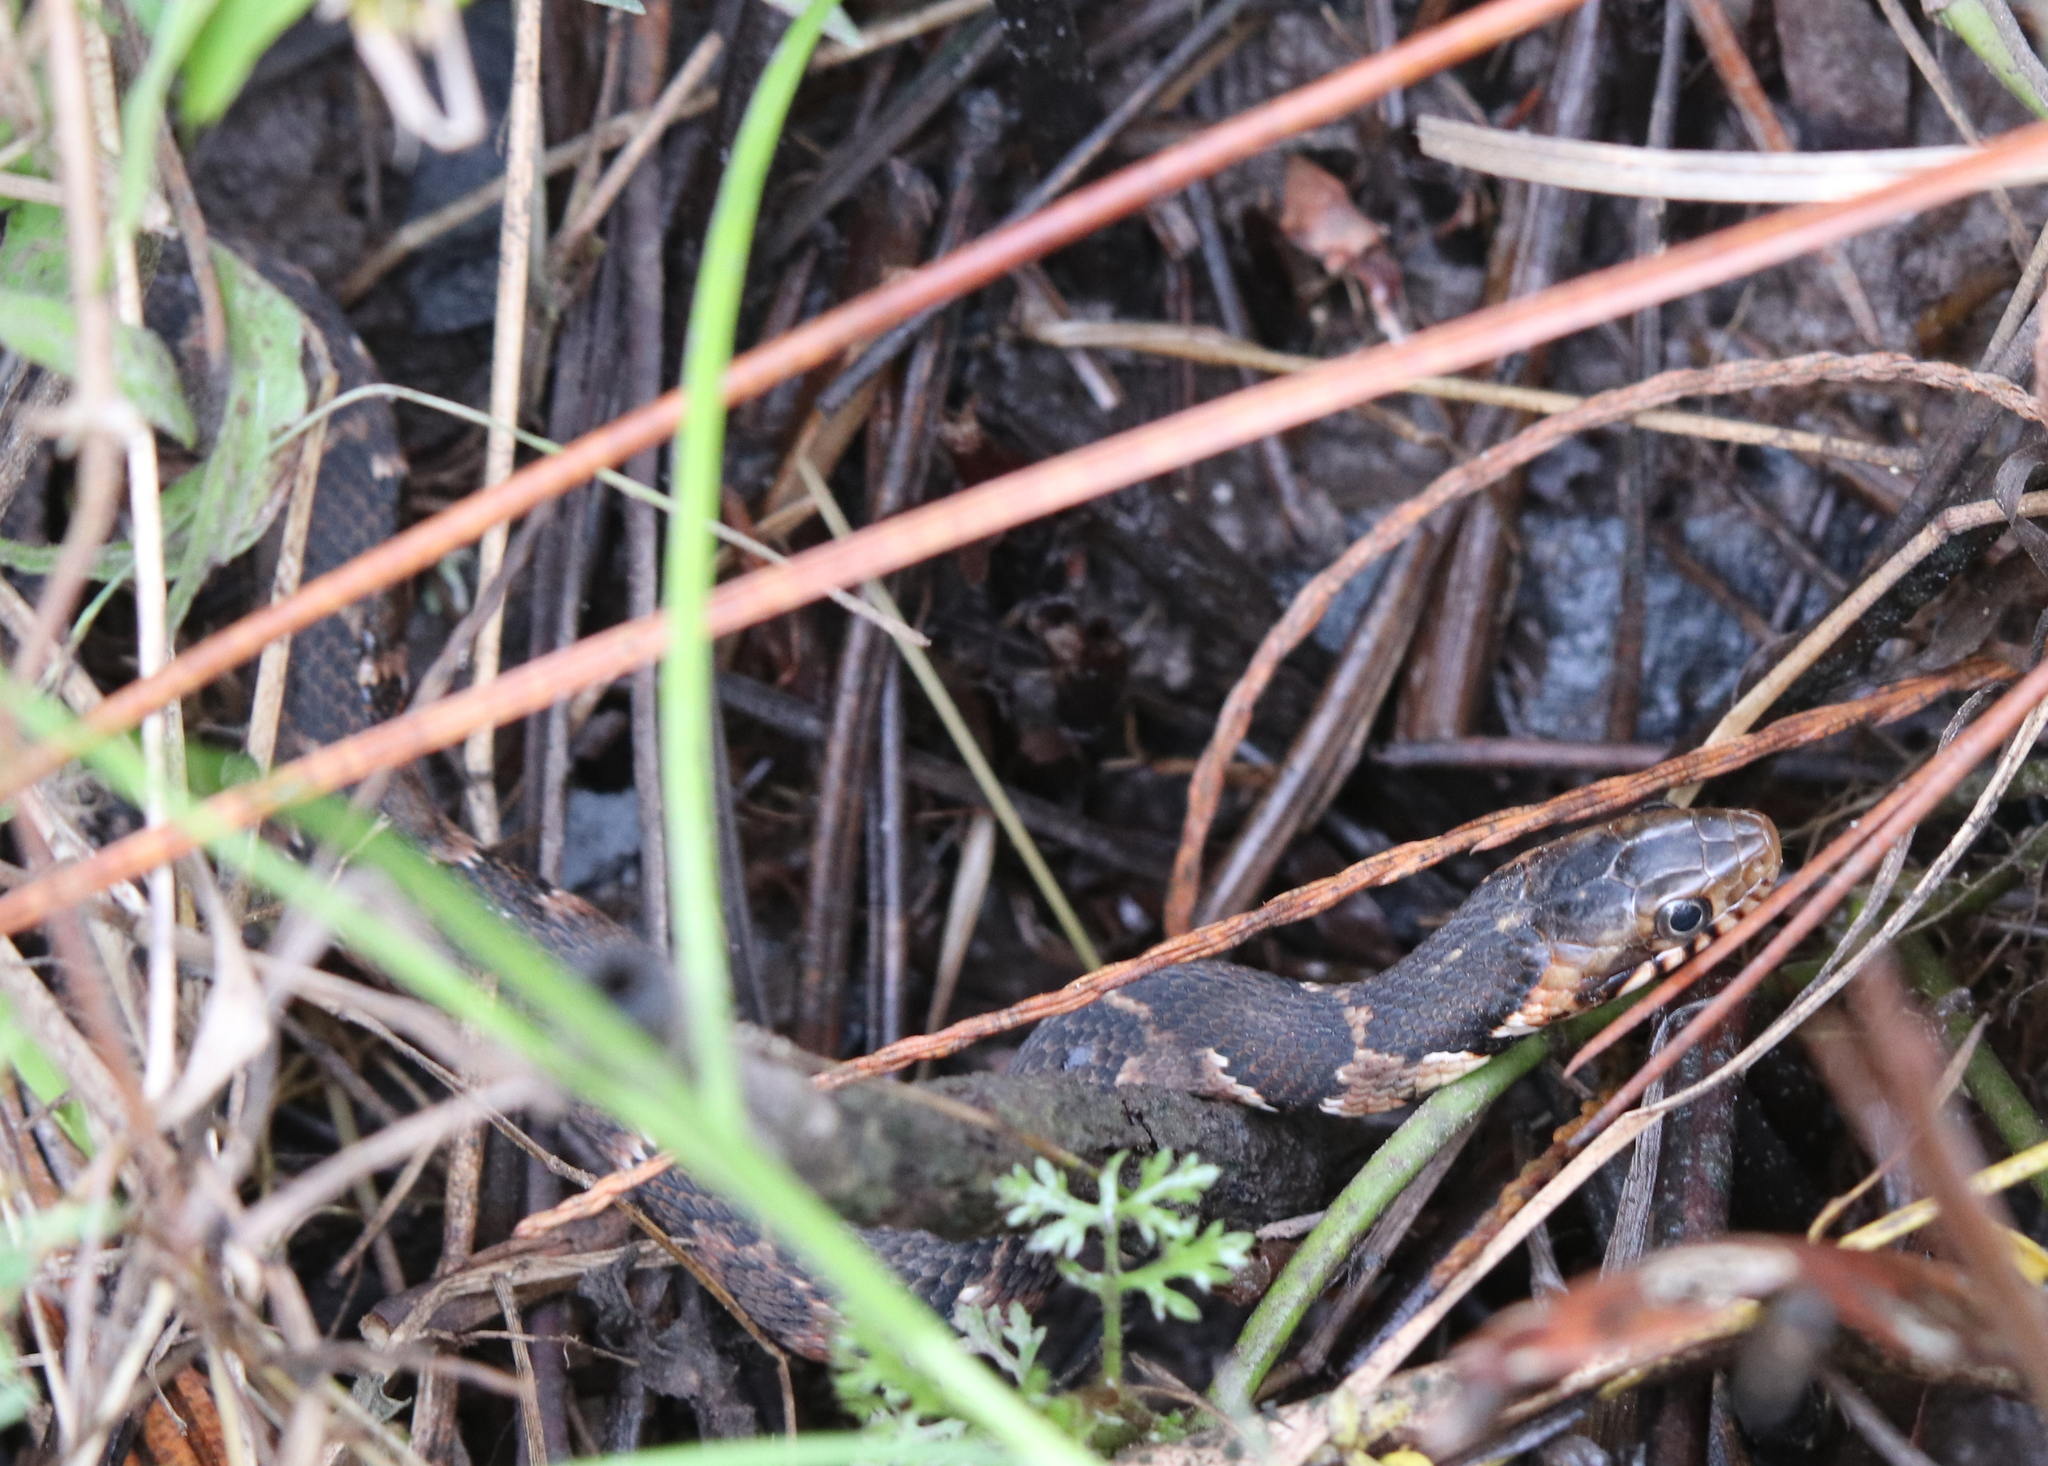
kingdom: Animalia
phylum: Chordata
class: Squamata
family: Colubridae
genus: Nerodia
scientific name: Nerodia fasciata
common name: Southern water snake
